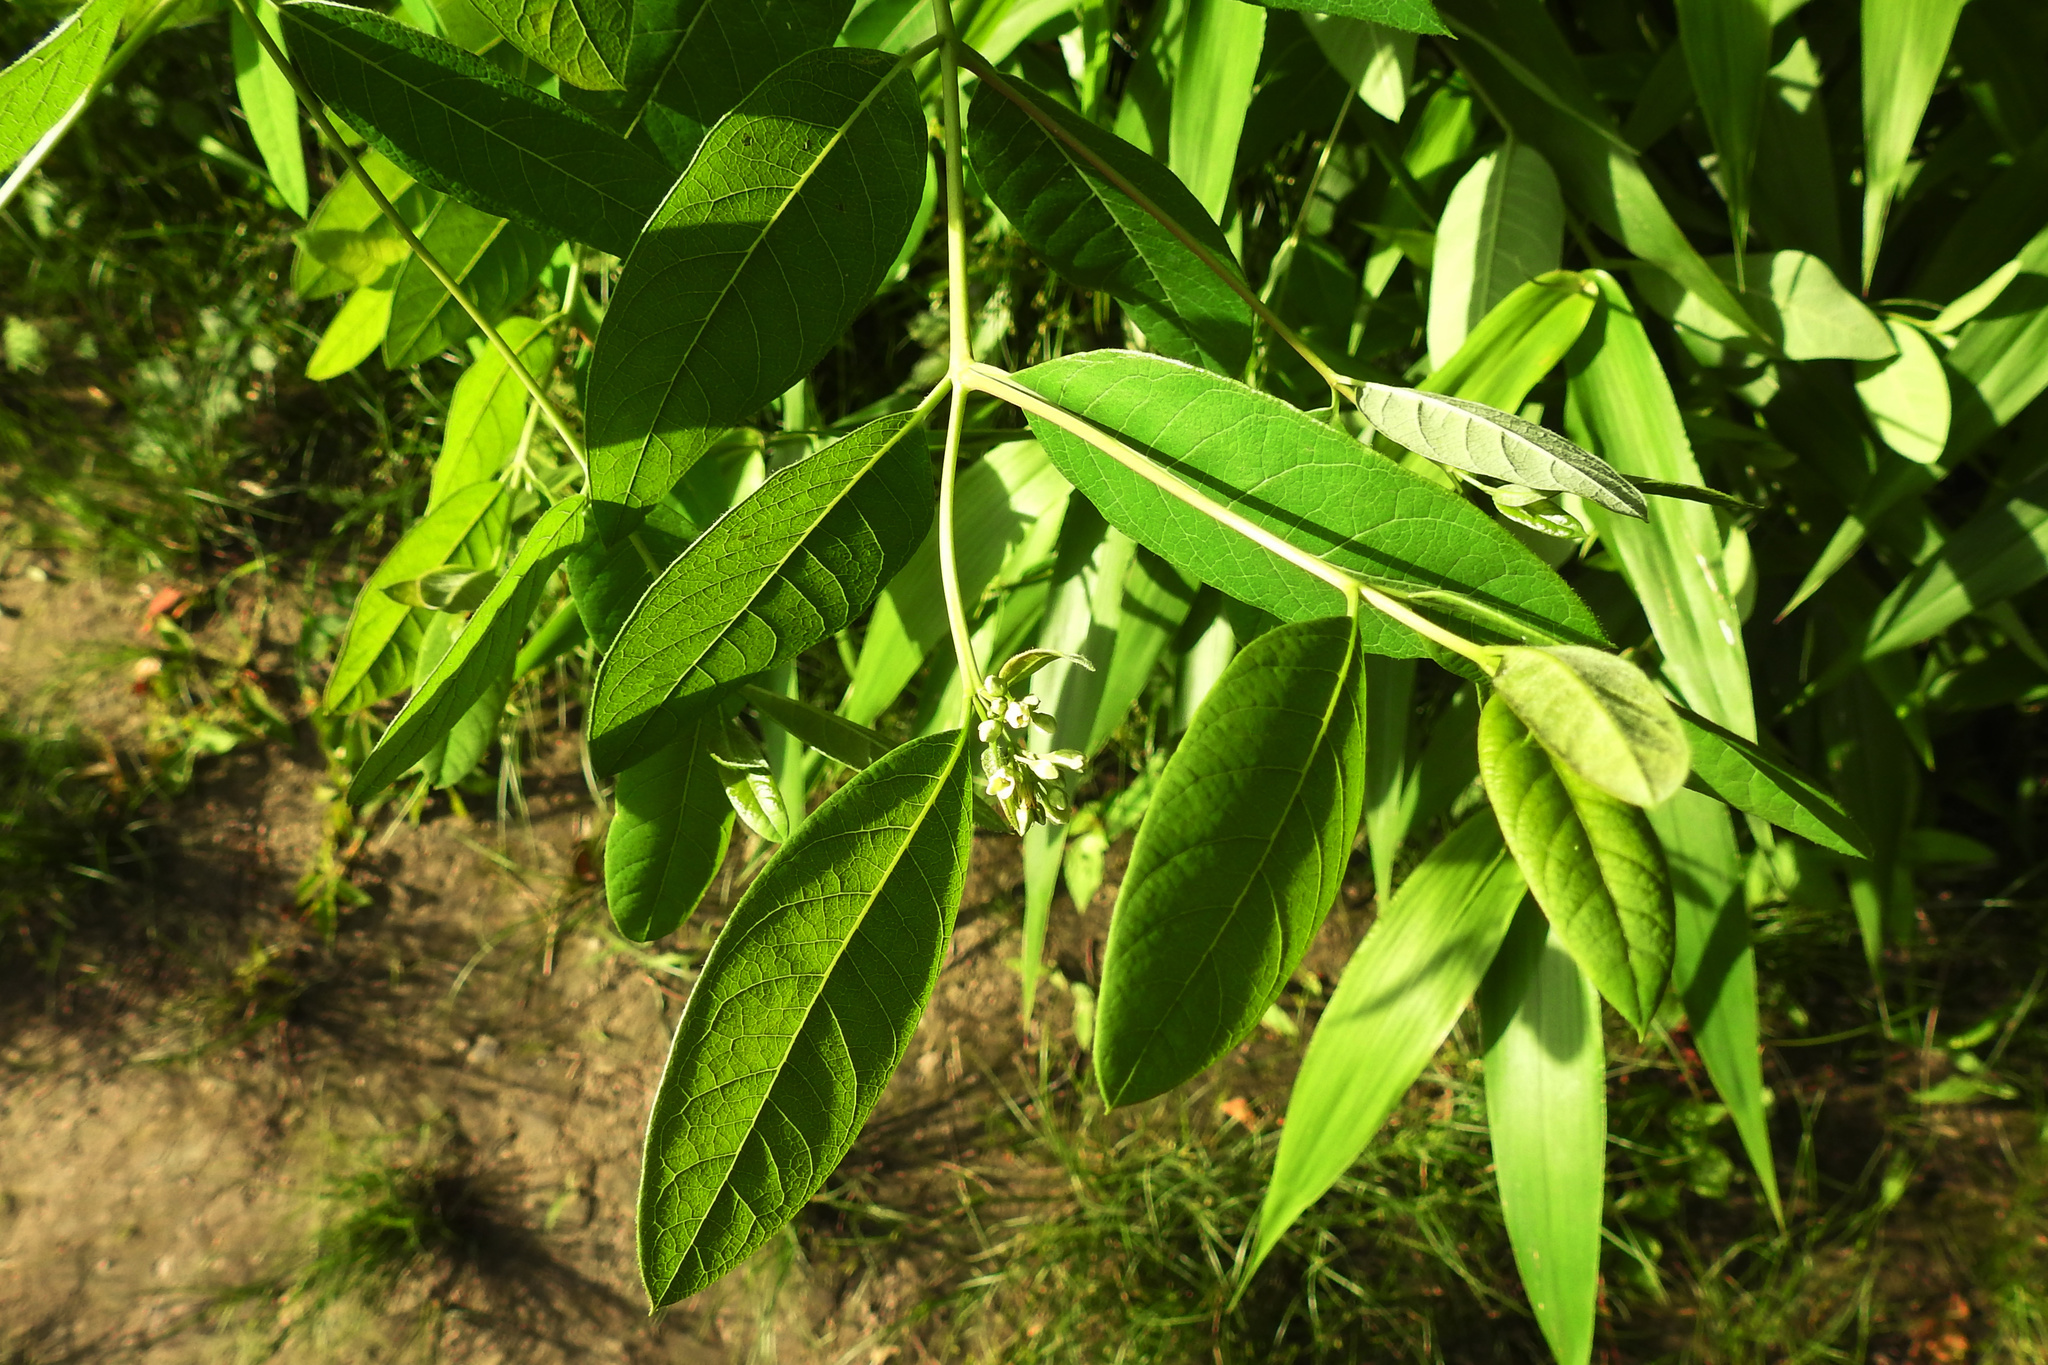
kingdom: Plantae
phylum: Tracheophyta
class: Magnoliopsida
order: Gentianales
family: Apocynaceae
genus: Apocynum
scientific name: Apocynum cannabinum
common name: Hemp dogbane
